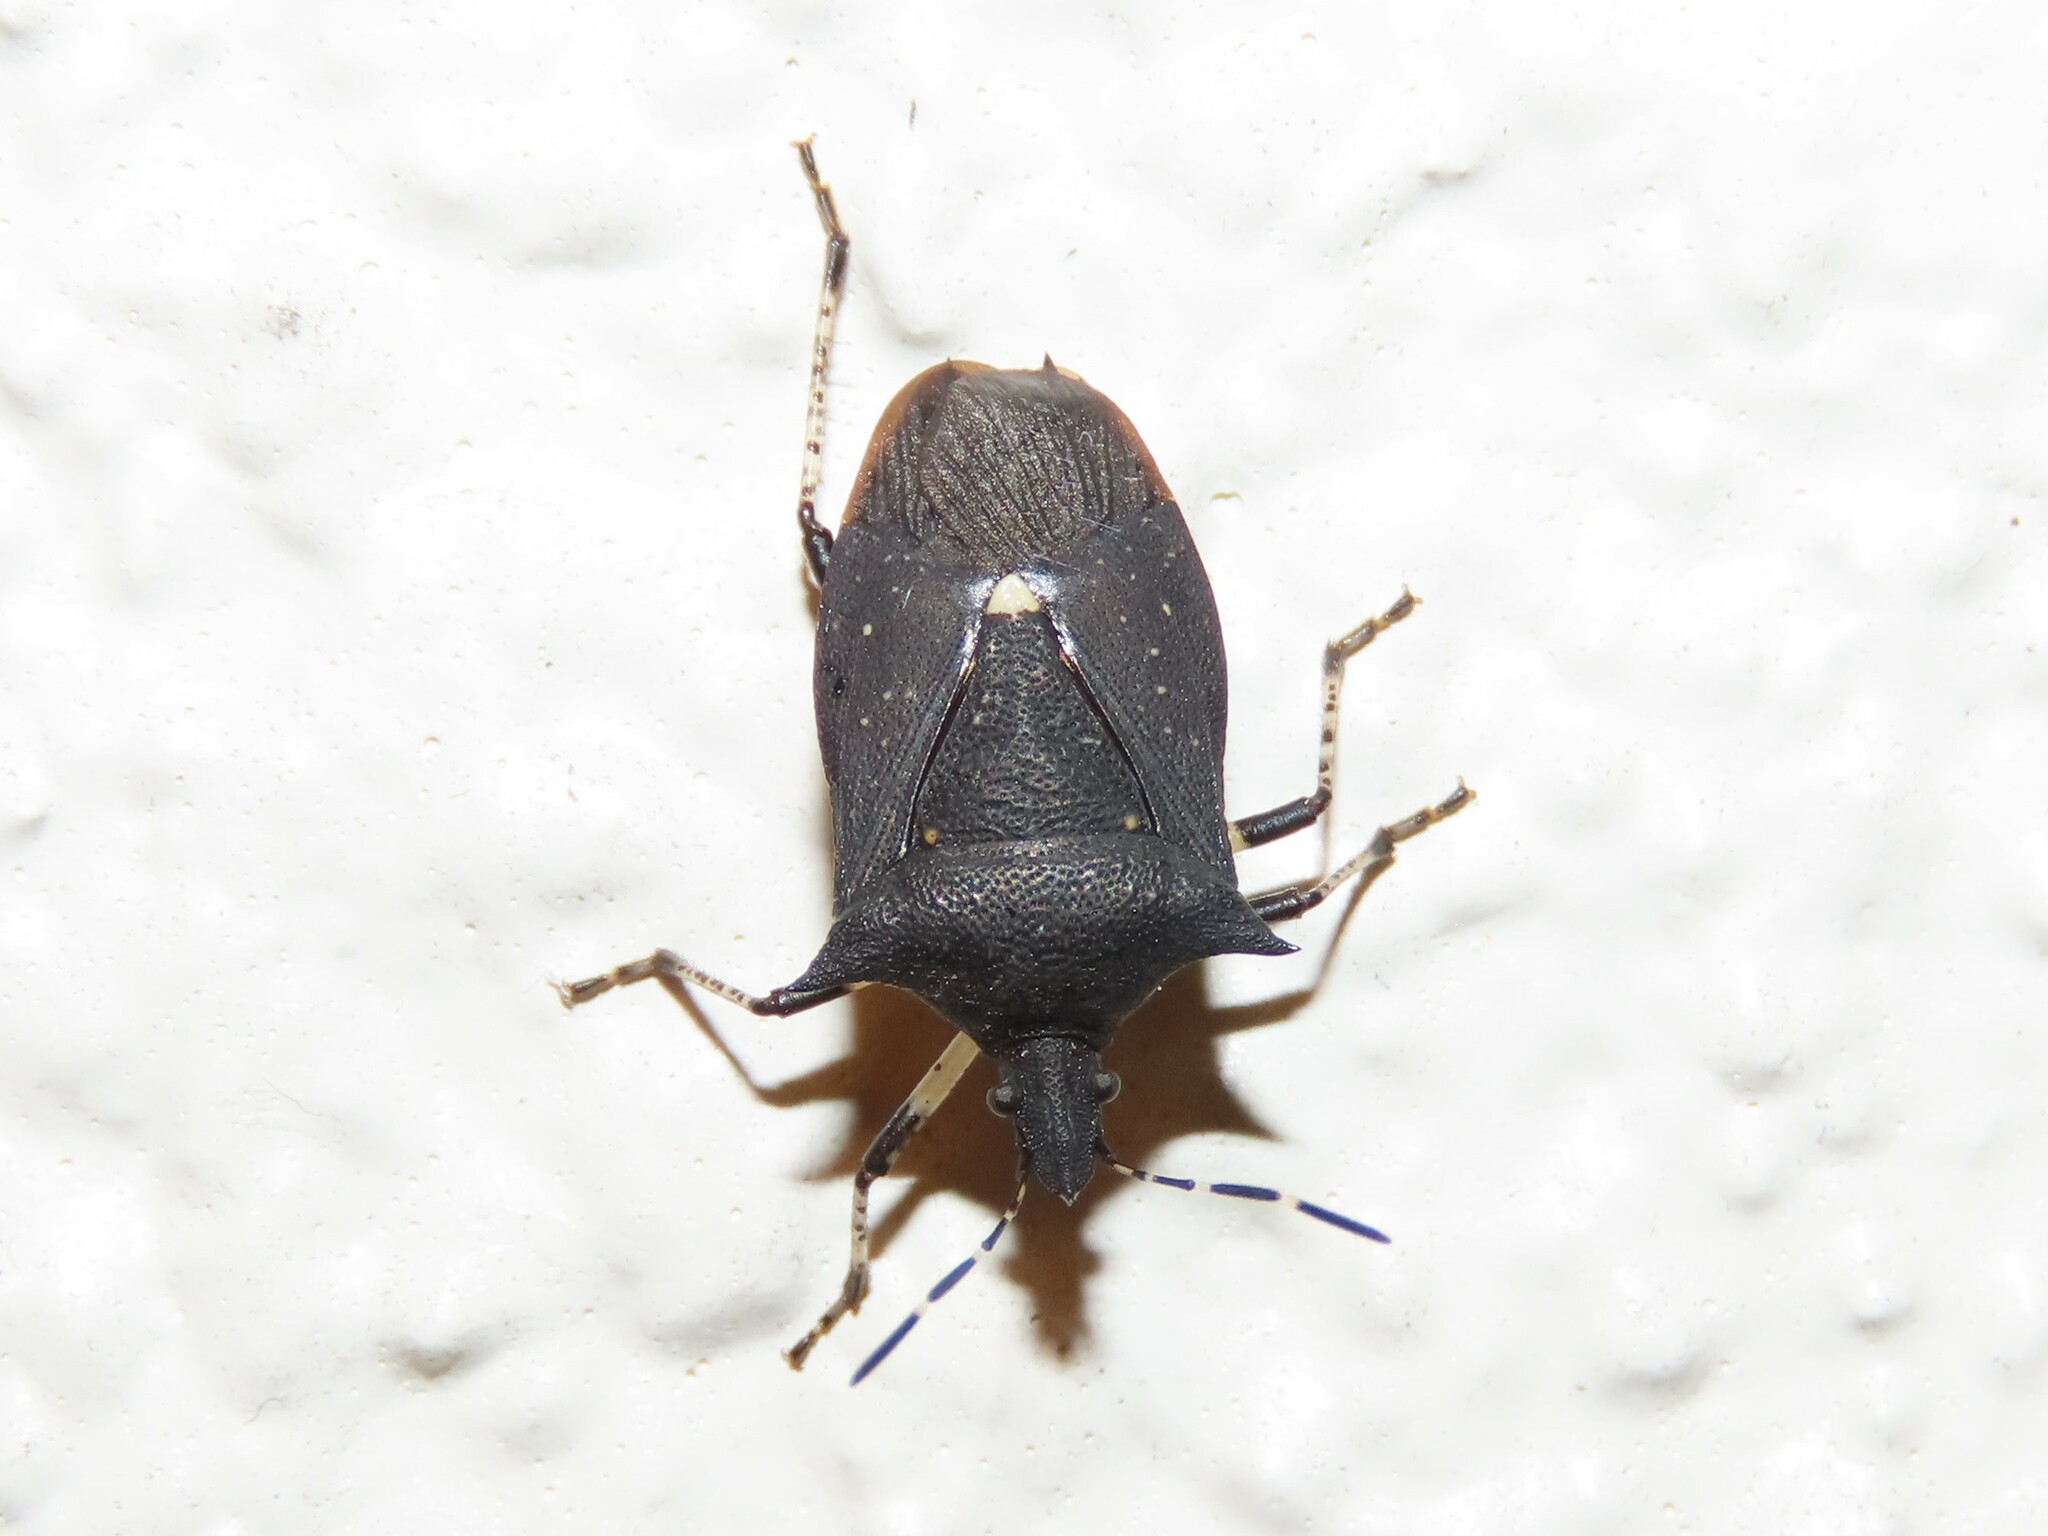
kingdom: Animalia
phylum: Arthropoda
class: Insecta
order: Hemiptera
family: Pentatomidae
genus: Proxys
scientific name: Proxys punctulatus
